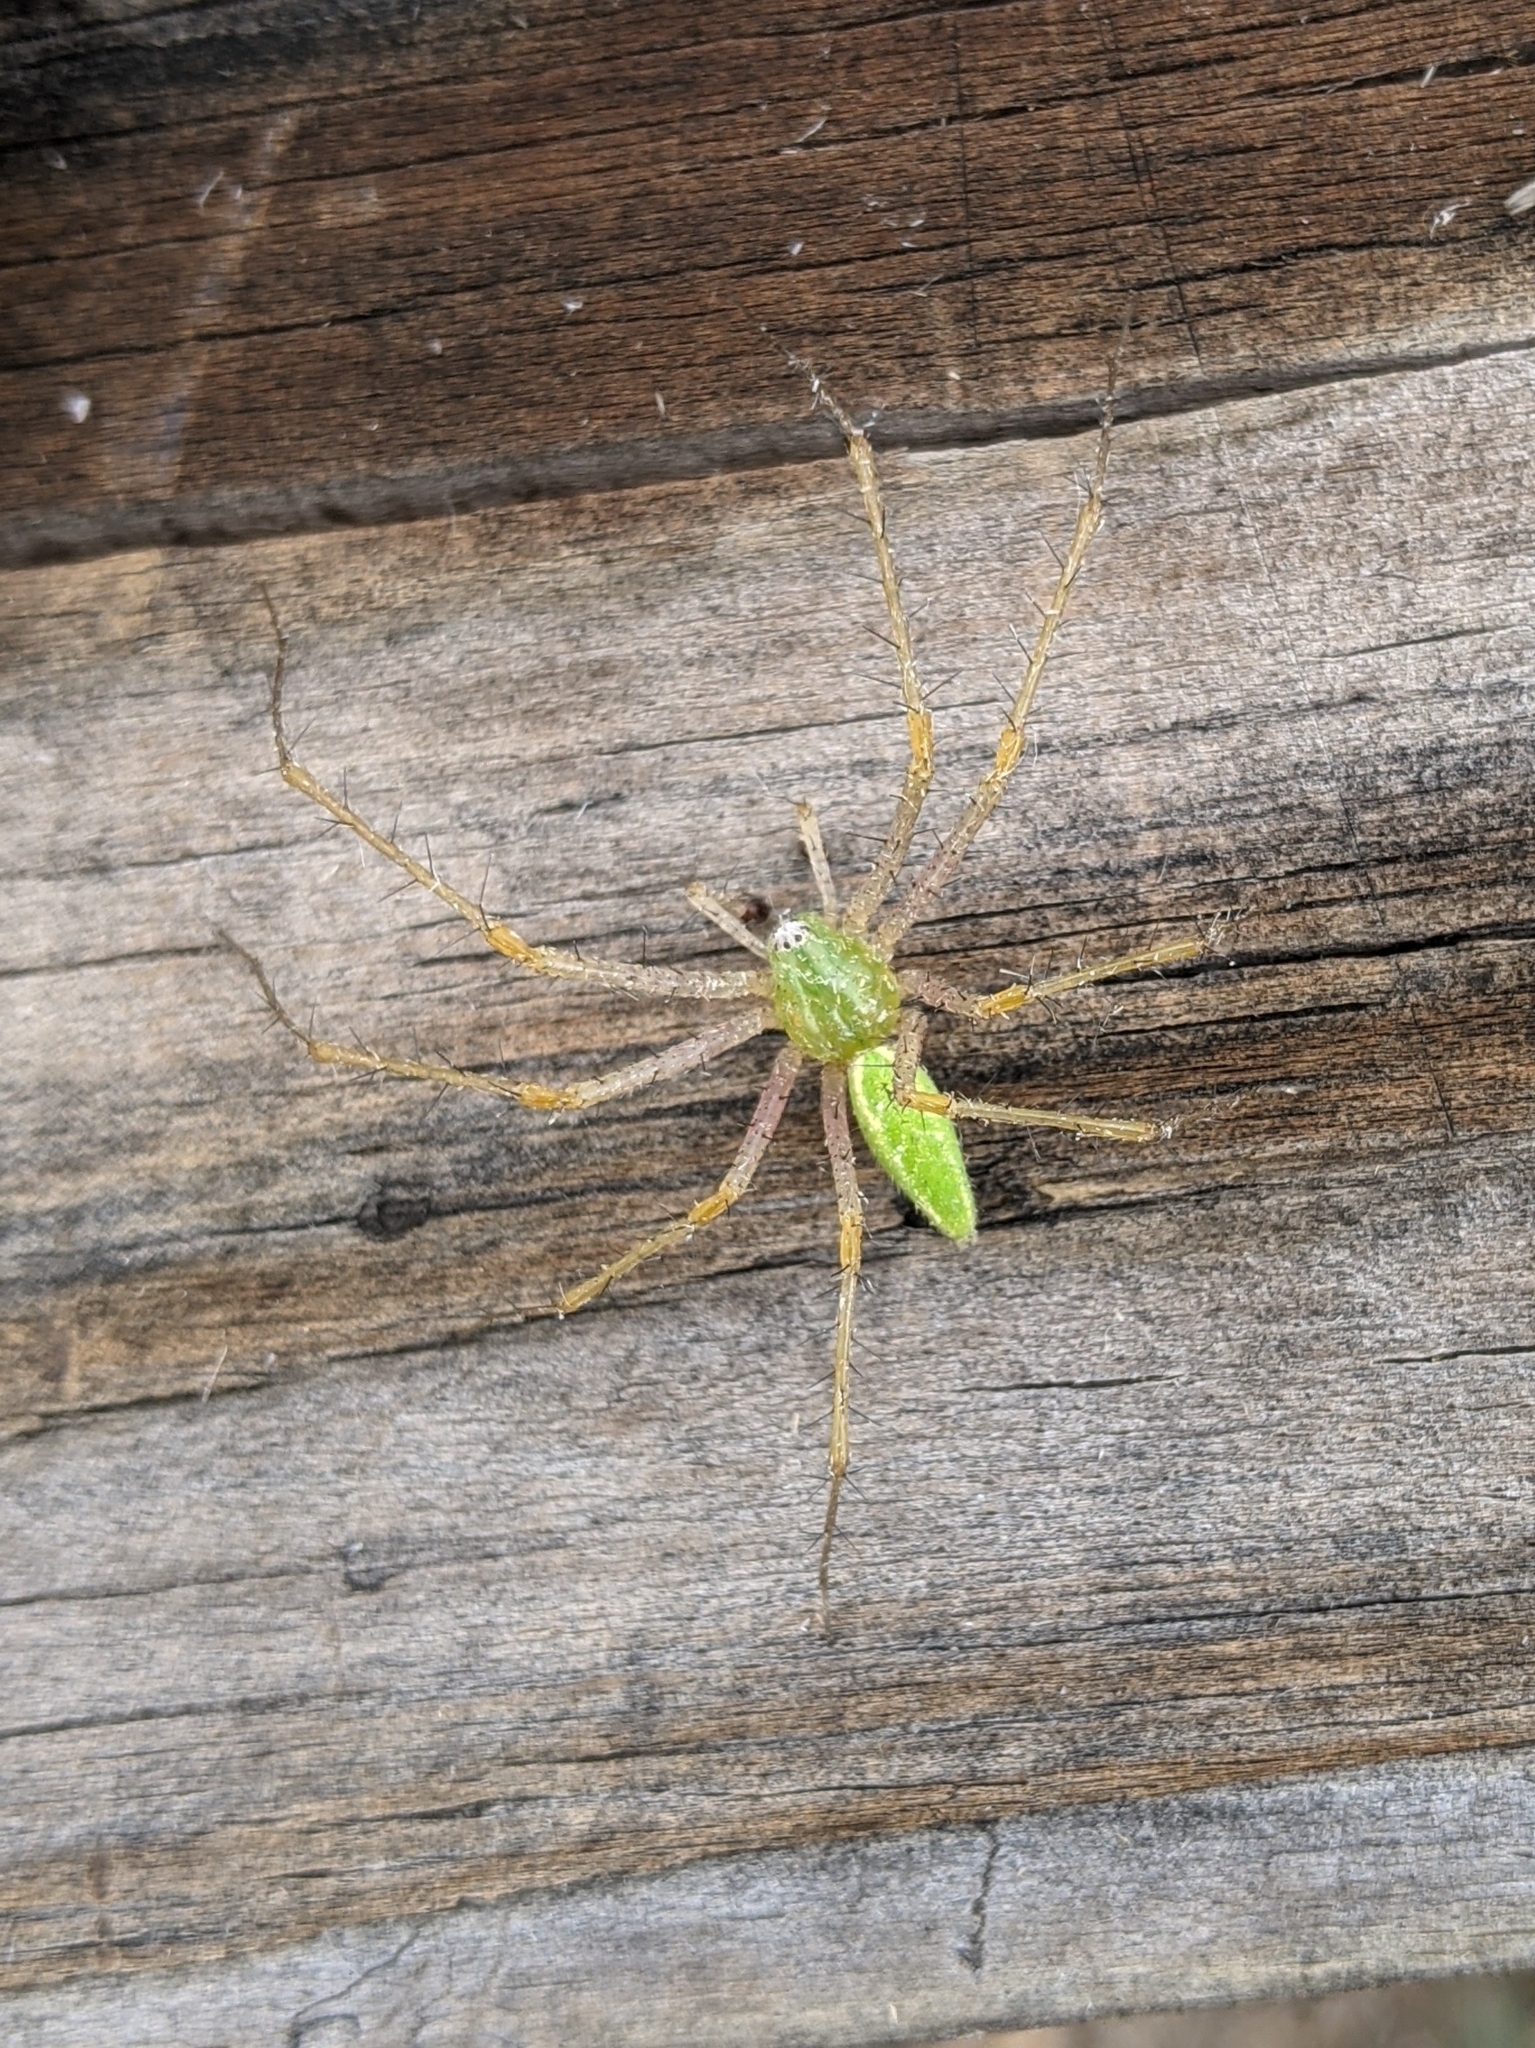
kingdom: Animalia
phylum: Arthropoda
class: Arachnida
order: Araneae
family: Oxyopidae
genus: Peucetia
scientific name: Peucetia viridans
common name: Lynx spiders
